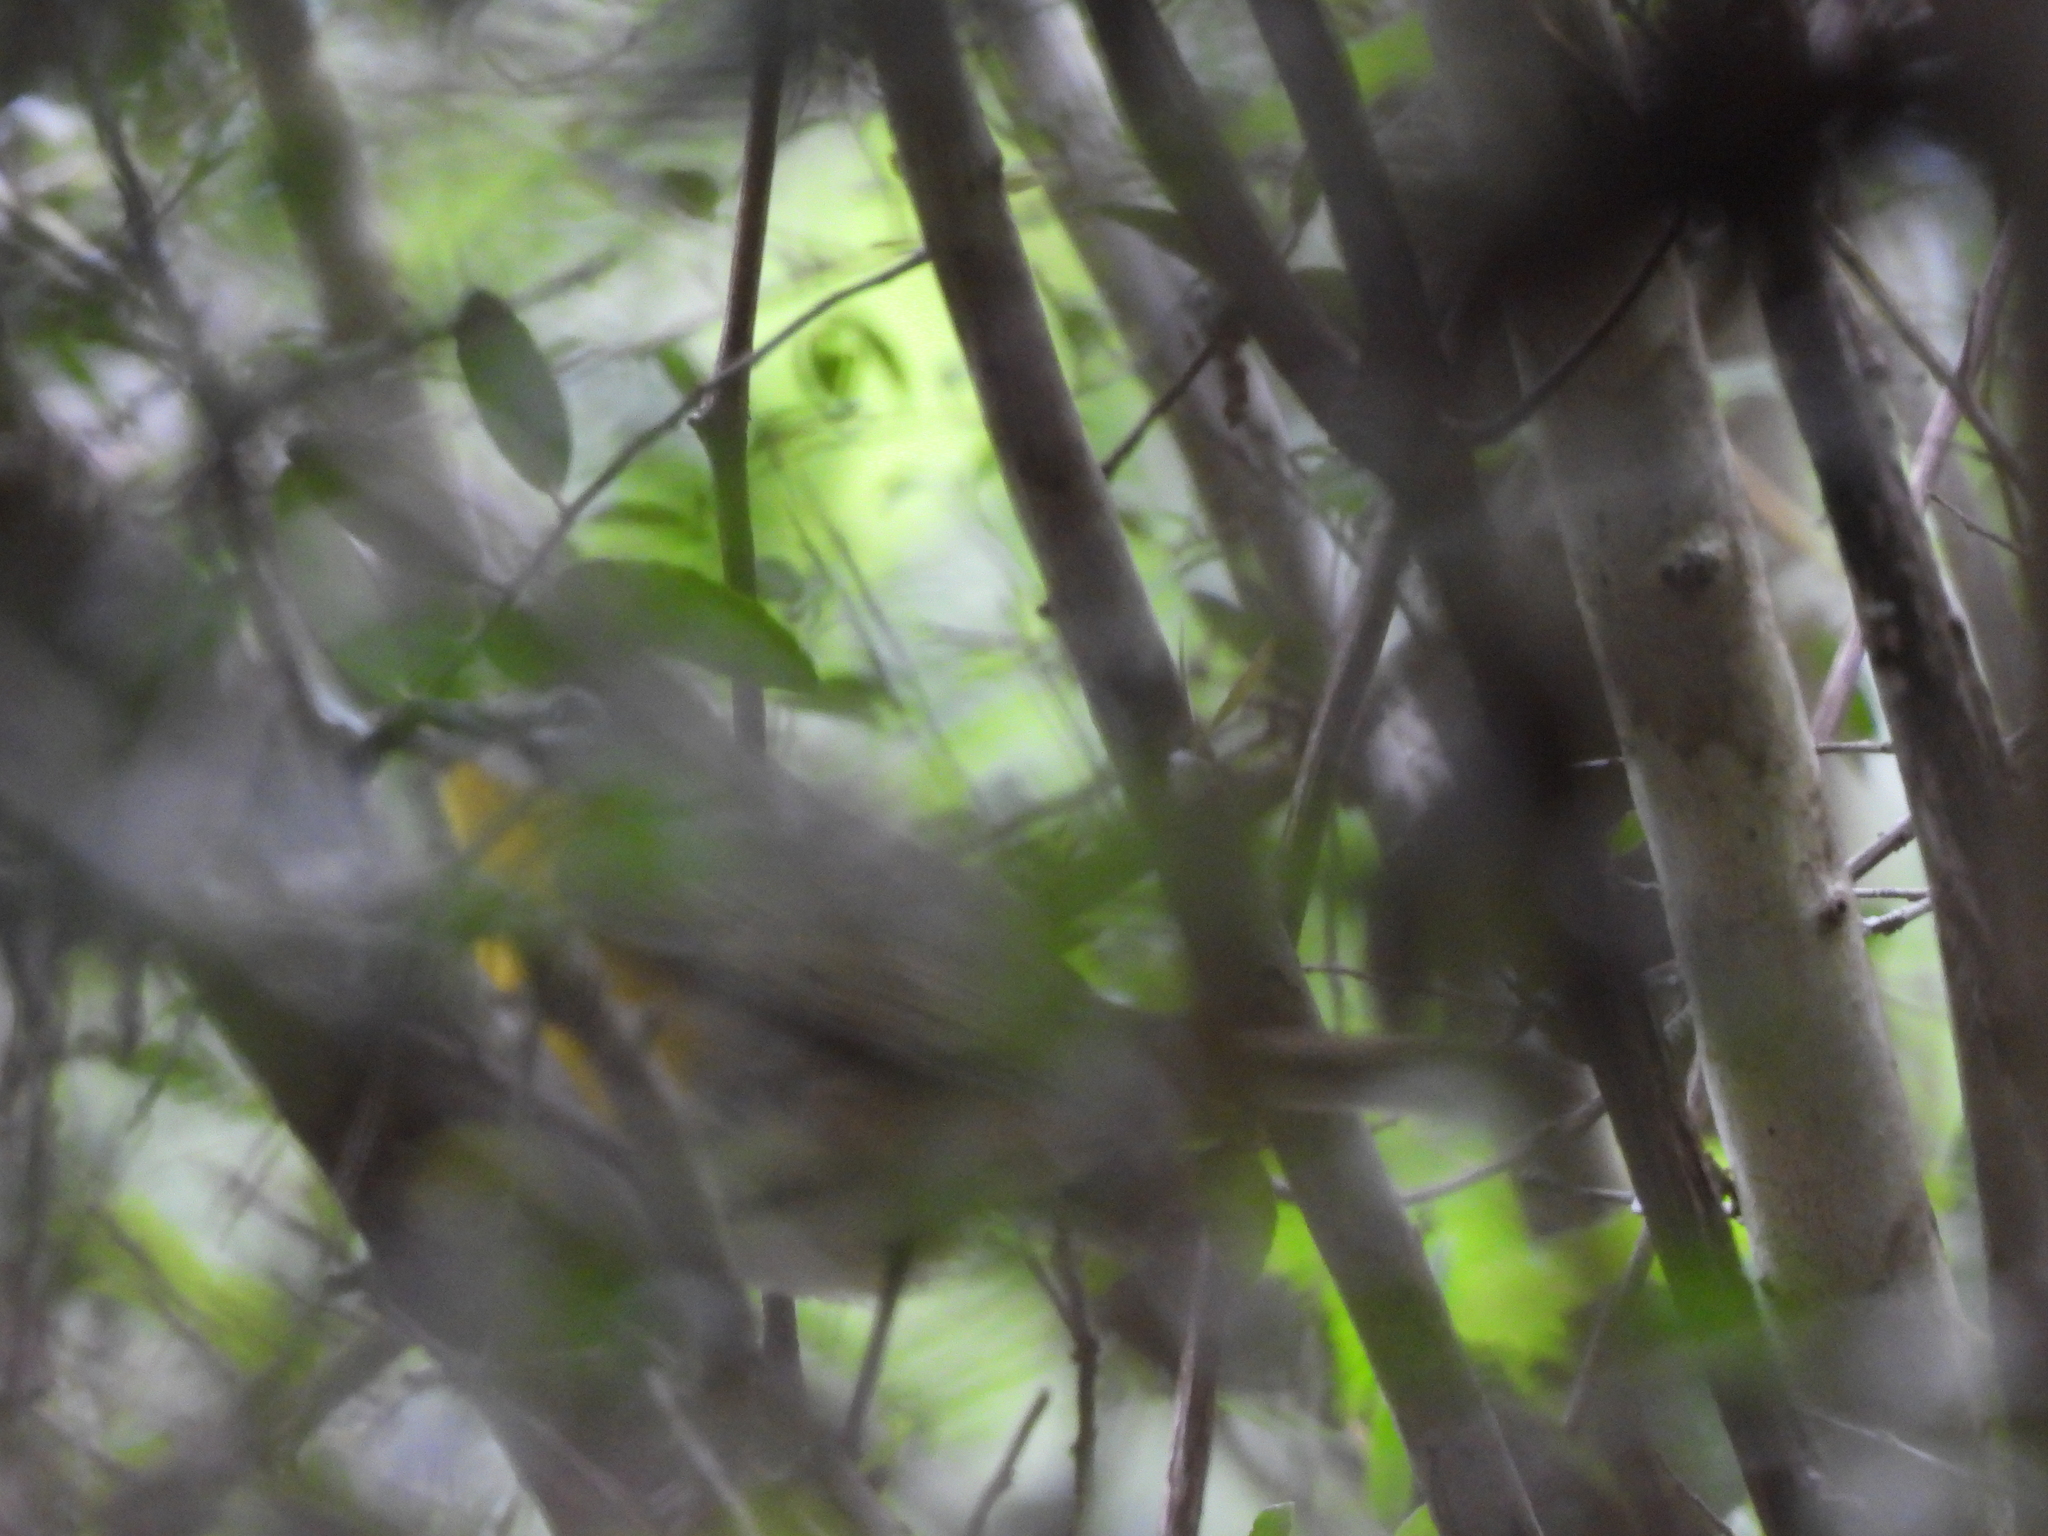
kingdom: Animalia
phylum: Chordata
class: Aves
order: Passeriformes
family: Parulidae
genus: Icteria
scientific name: Icteria virens
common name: Yellow-breasted chat
